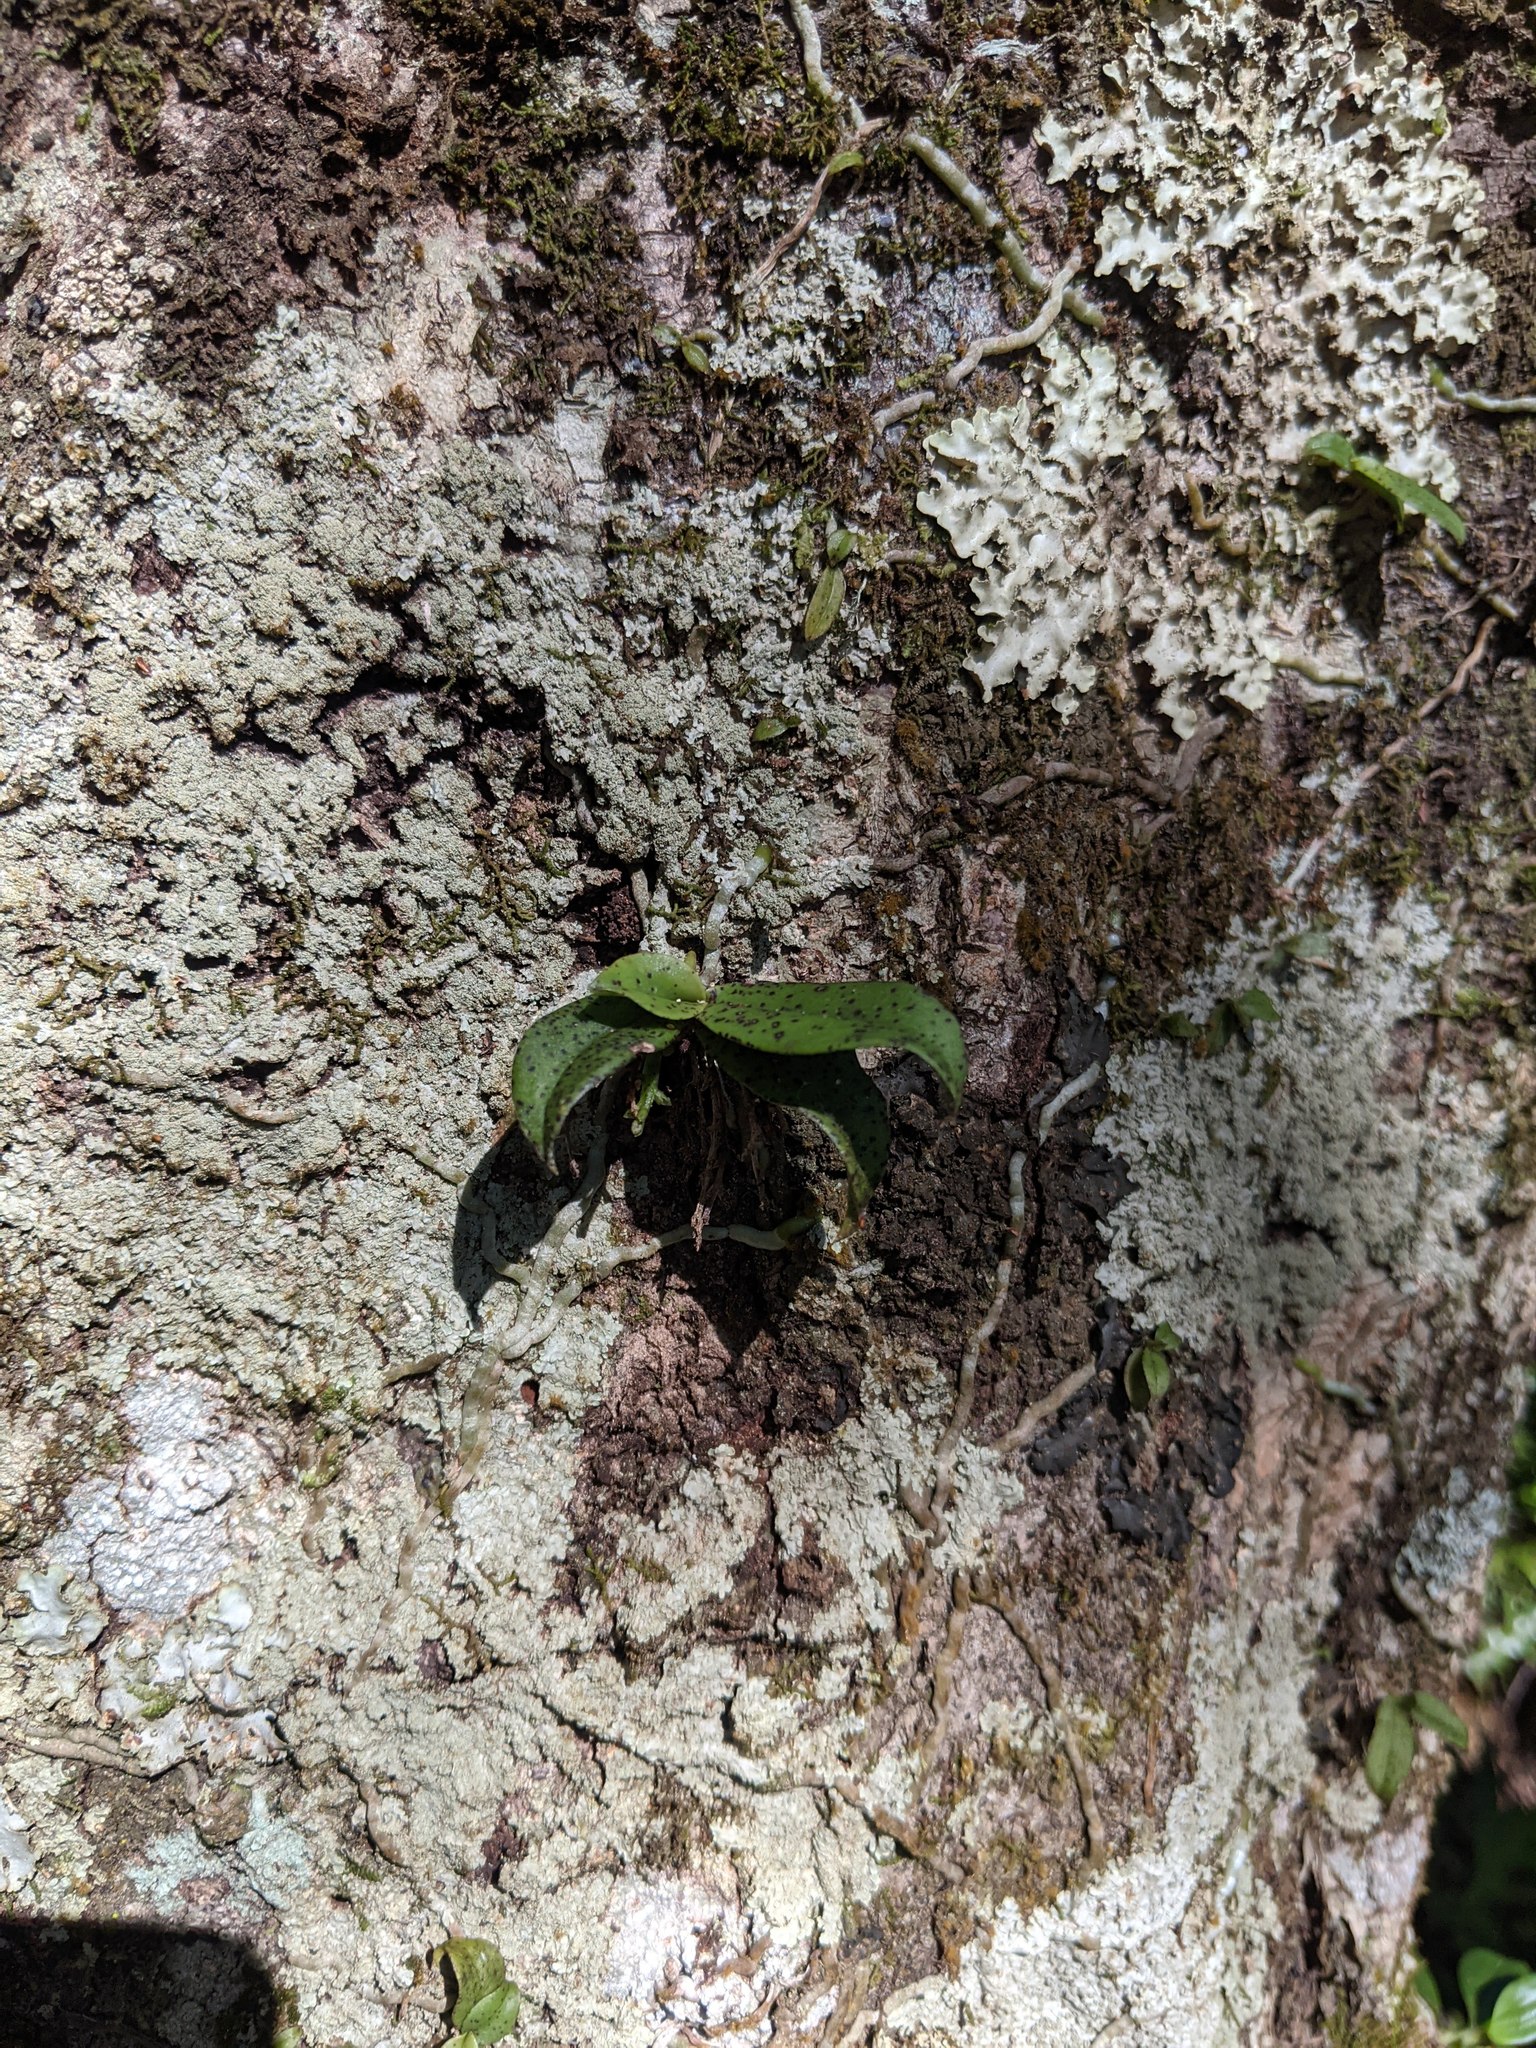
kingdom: Plantae
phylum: Tracheophyta
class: Liliopsida
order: Asparagales
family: Orchidaceae
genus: Drymoanthus
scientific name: Drymoanthus flavus
